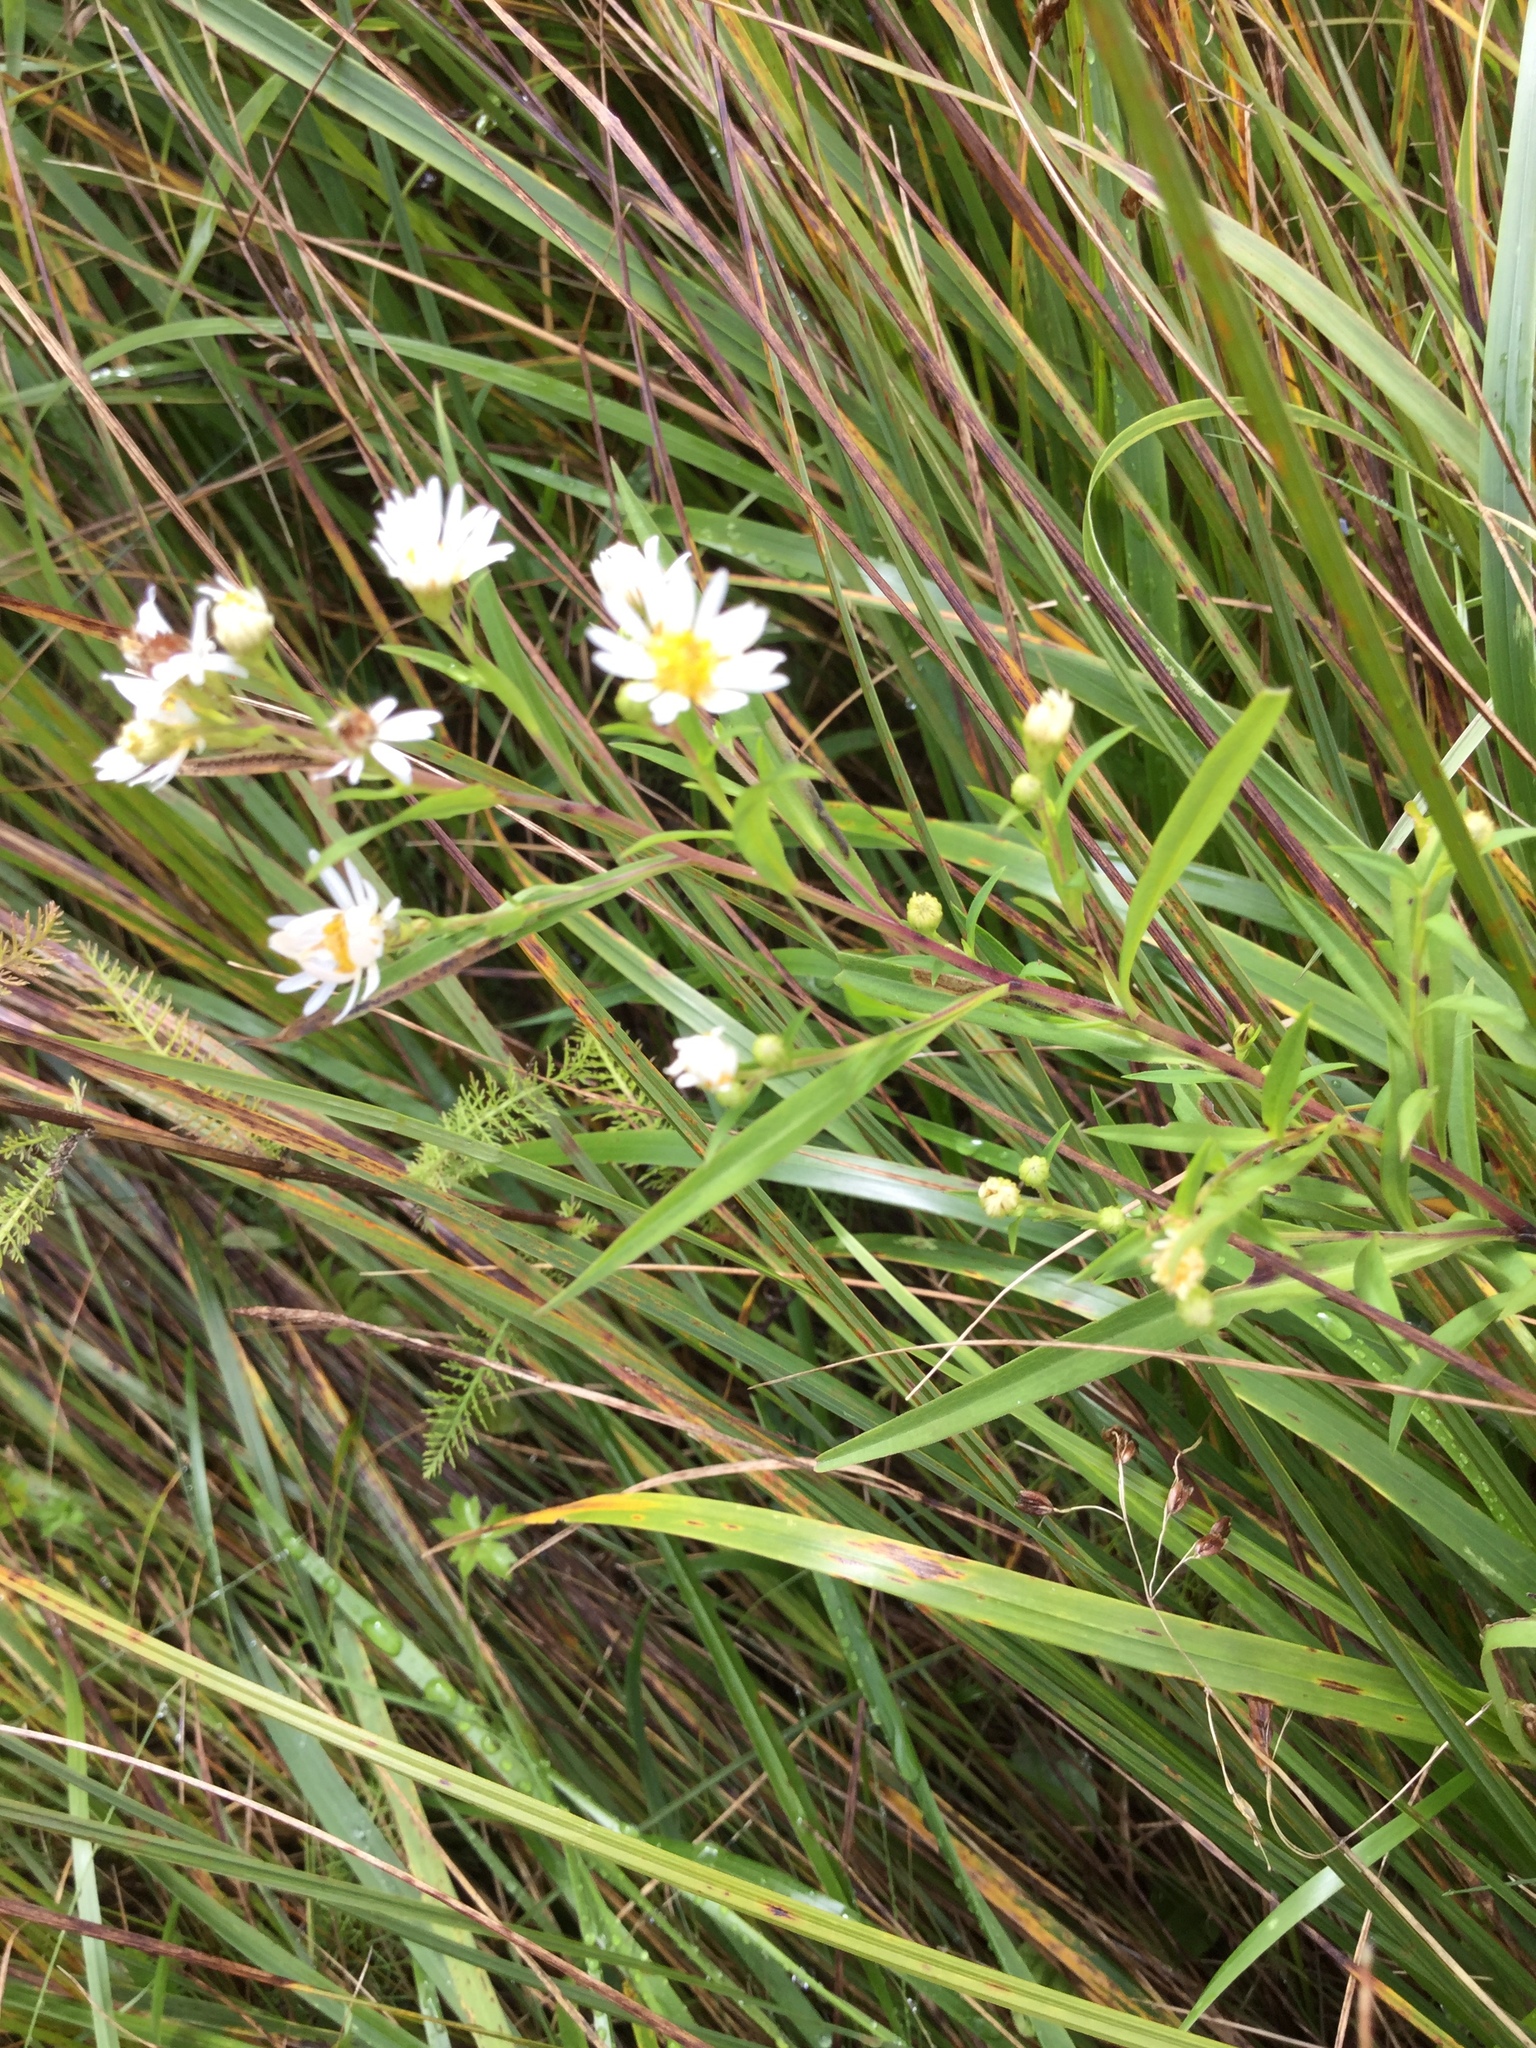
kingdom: Plantae
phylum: Tracheophyta
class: Magnoliopsida
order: Asterales
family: Asteraceae
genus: Symphyotrichum
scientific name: Symphyotrichum lanceolatum
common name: Panicled aster
